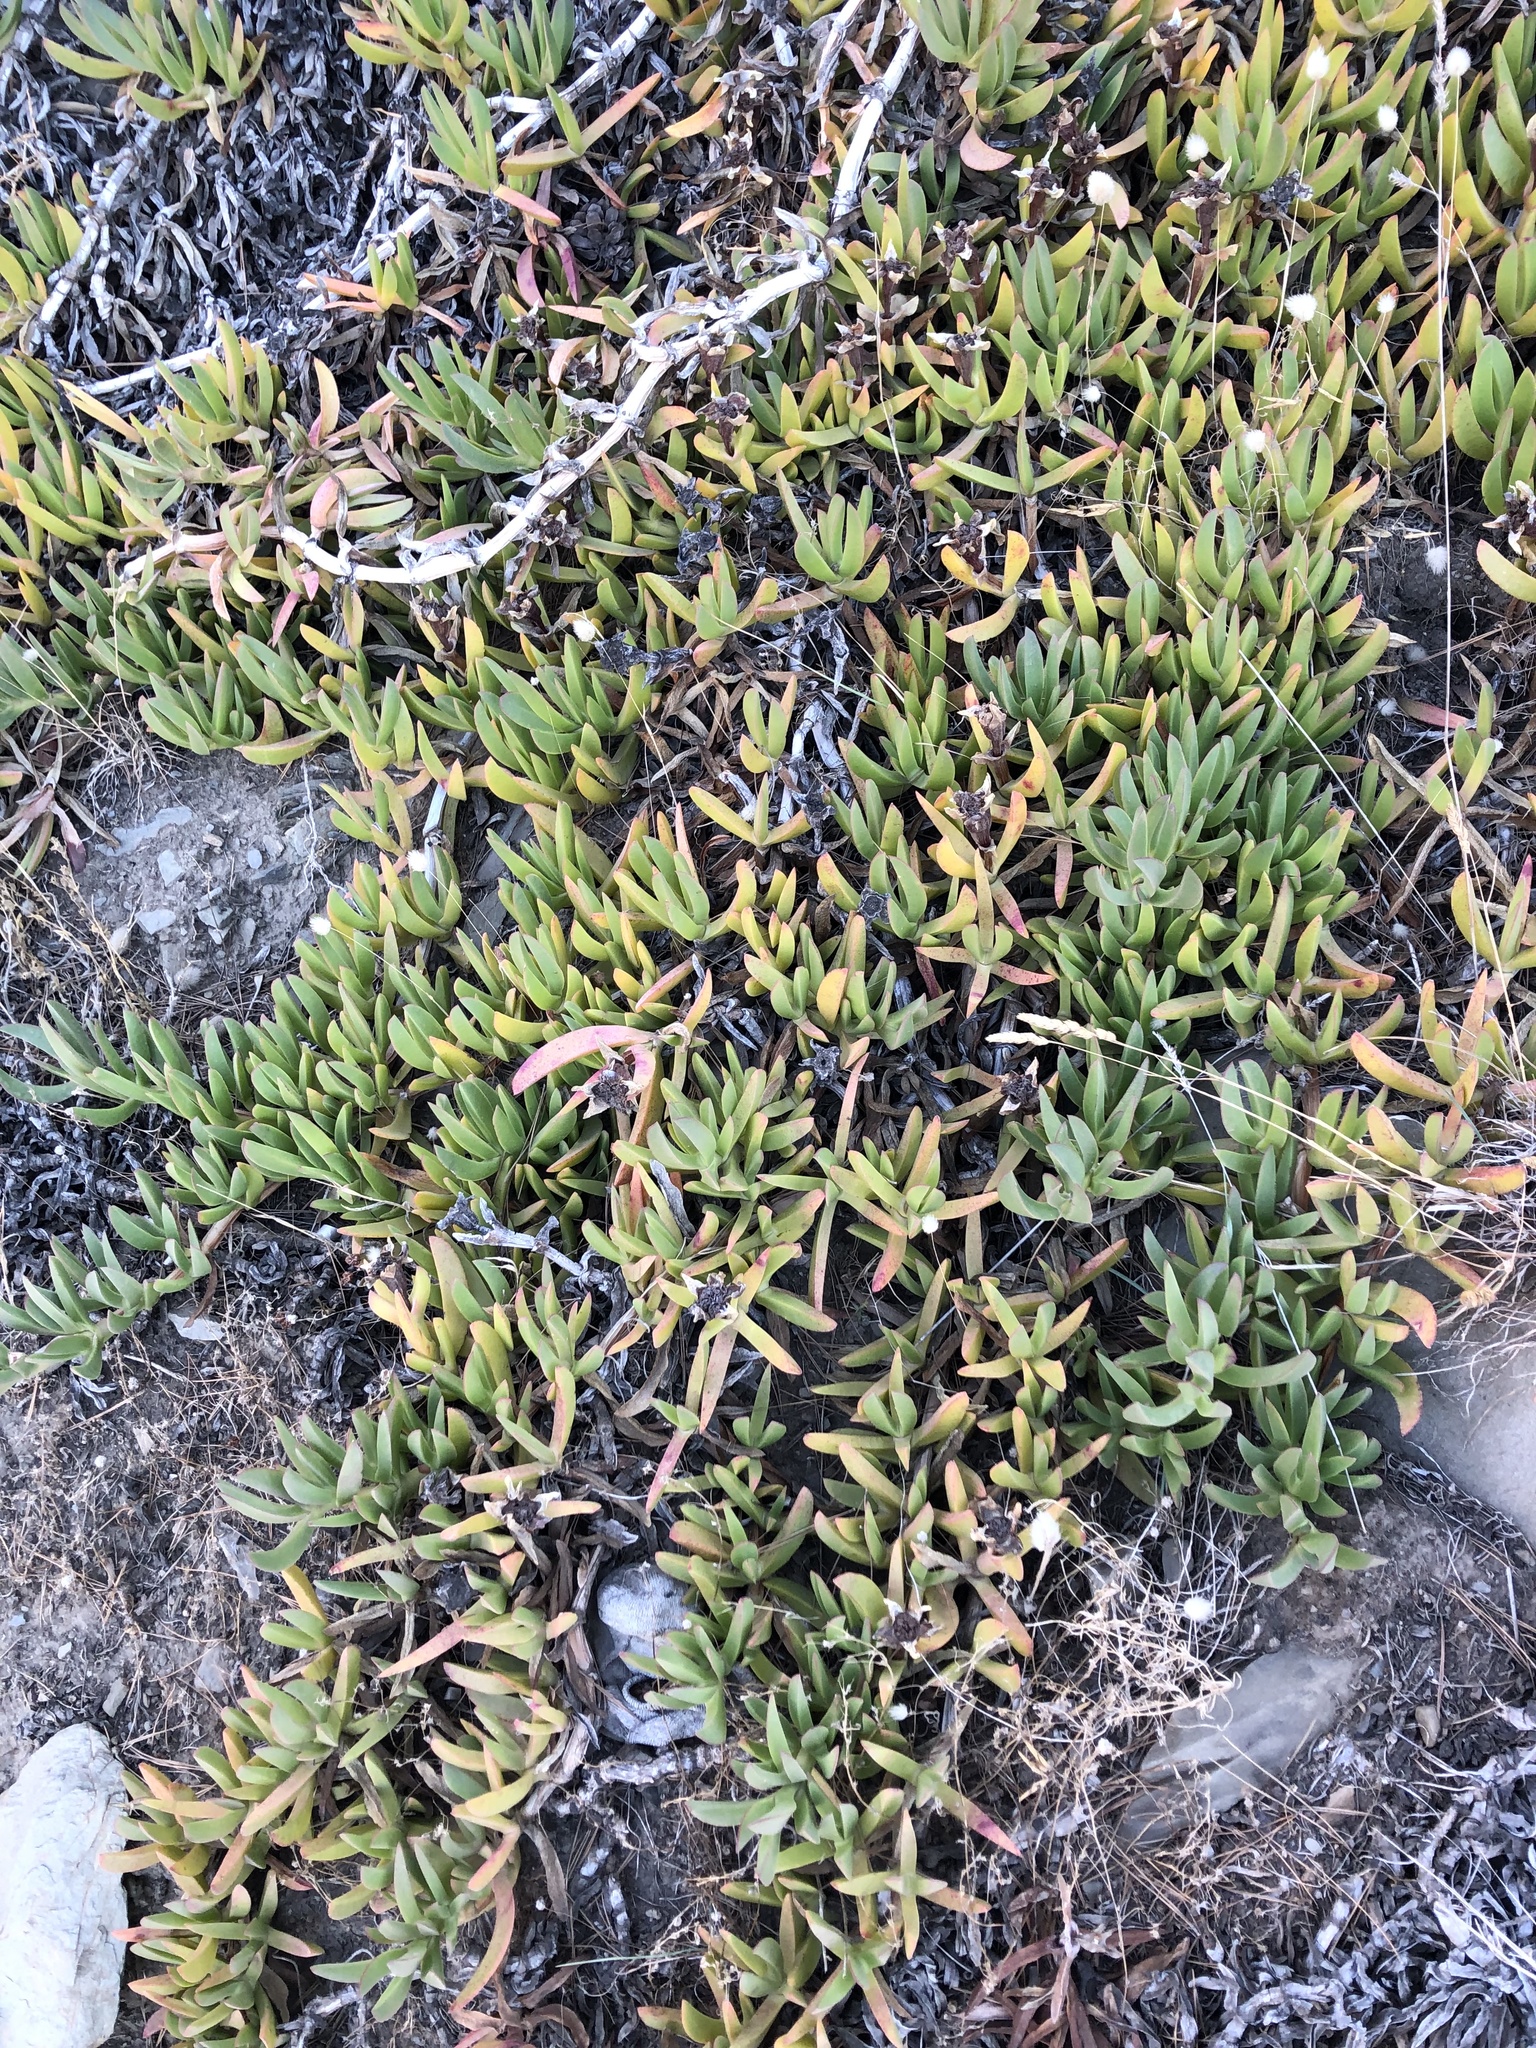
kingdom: Plantae
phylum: Tracheophyta
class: Magnoliopsida
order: Caryophyllales
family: Aizoaceae
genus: Carpobrotus
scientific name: Carpobrotus edulis
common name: Hottentot-fig
